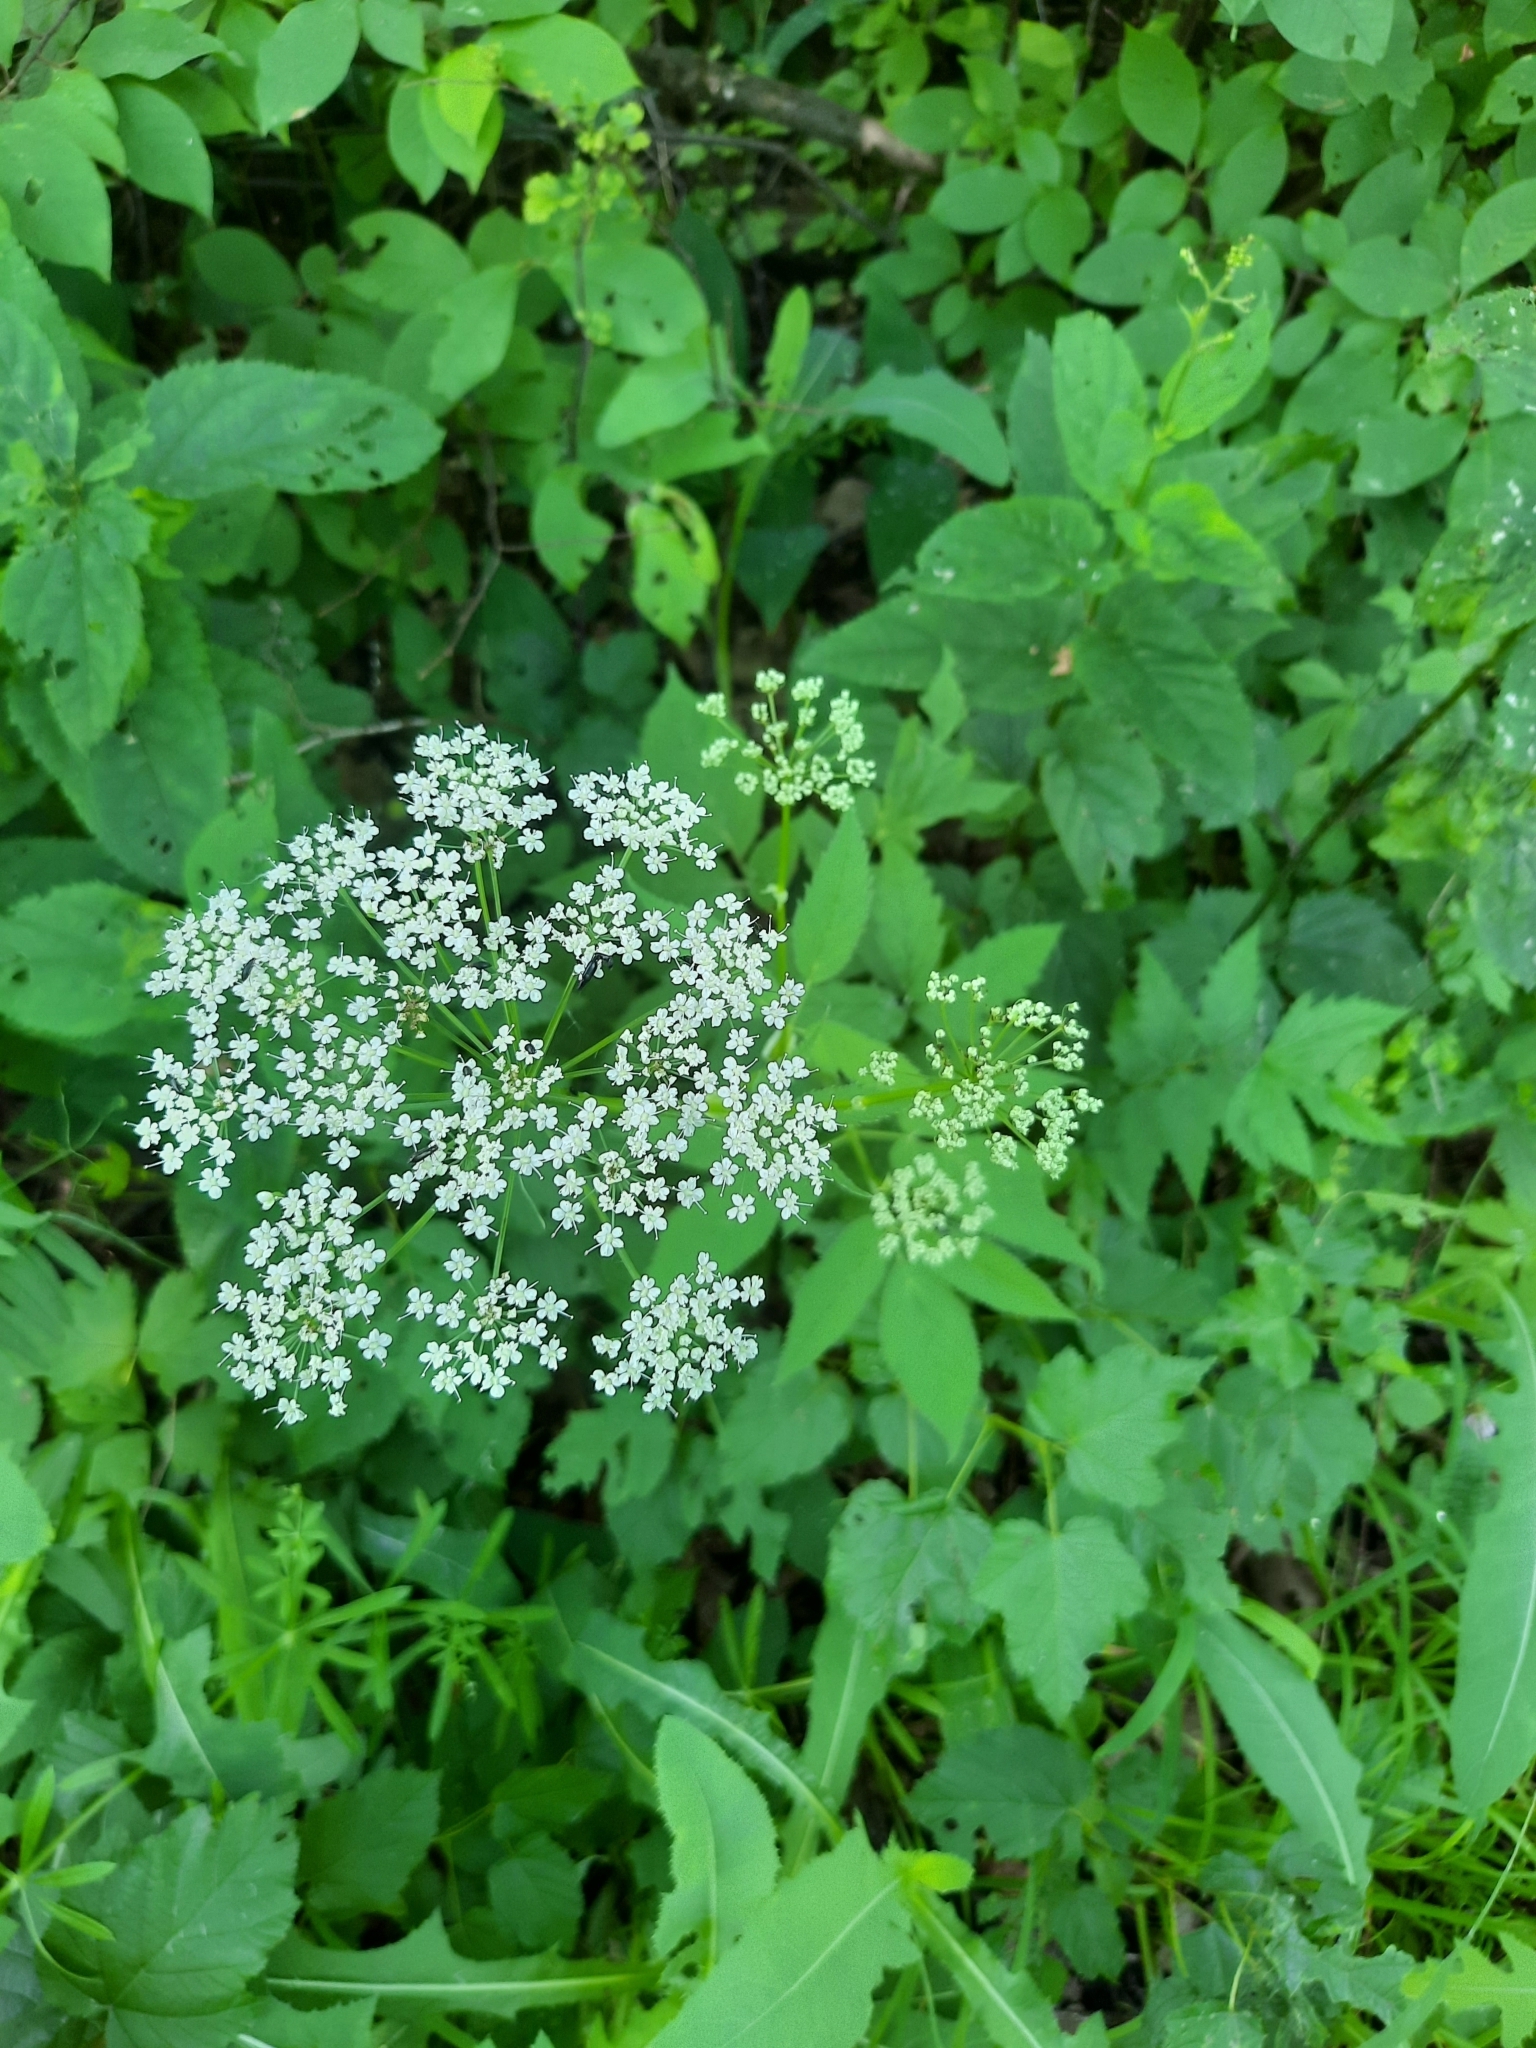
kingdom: Plantae
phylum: Tracheophyta
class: Magnoliopsida
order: Apiales
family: Apiaceae
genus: Aegopodium
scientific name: Aegopodium podagraria
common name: Ground-elder
